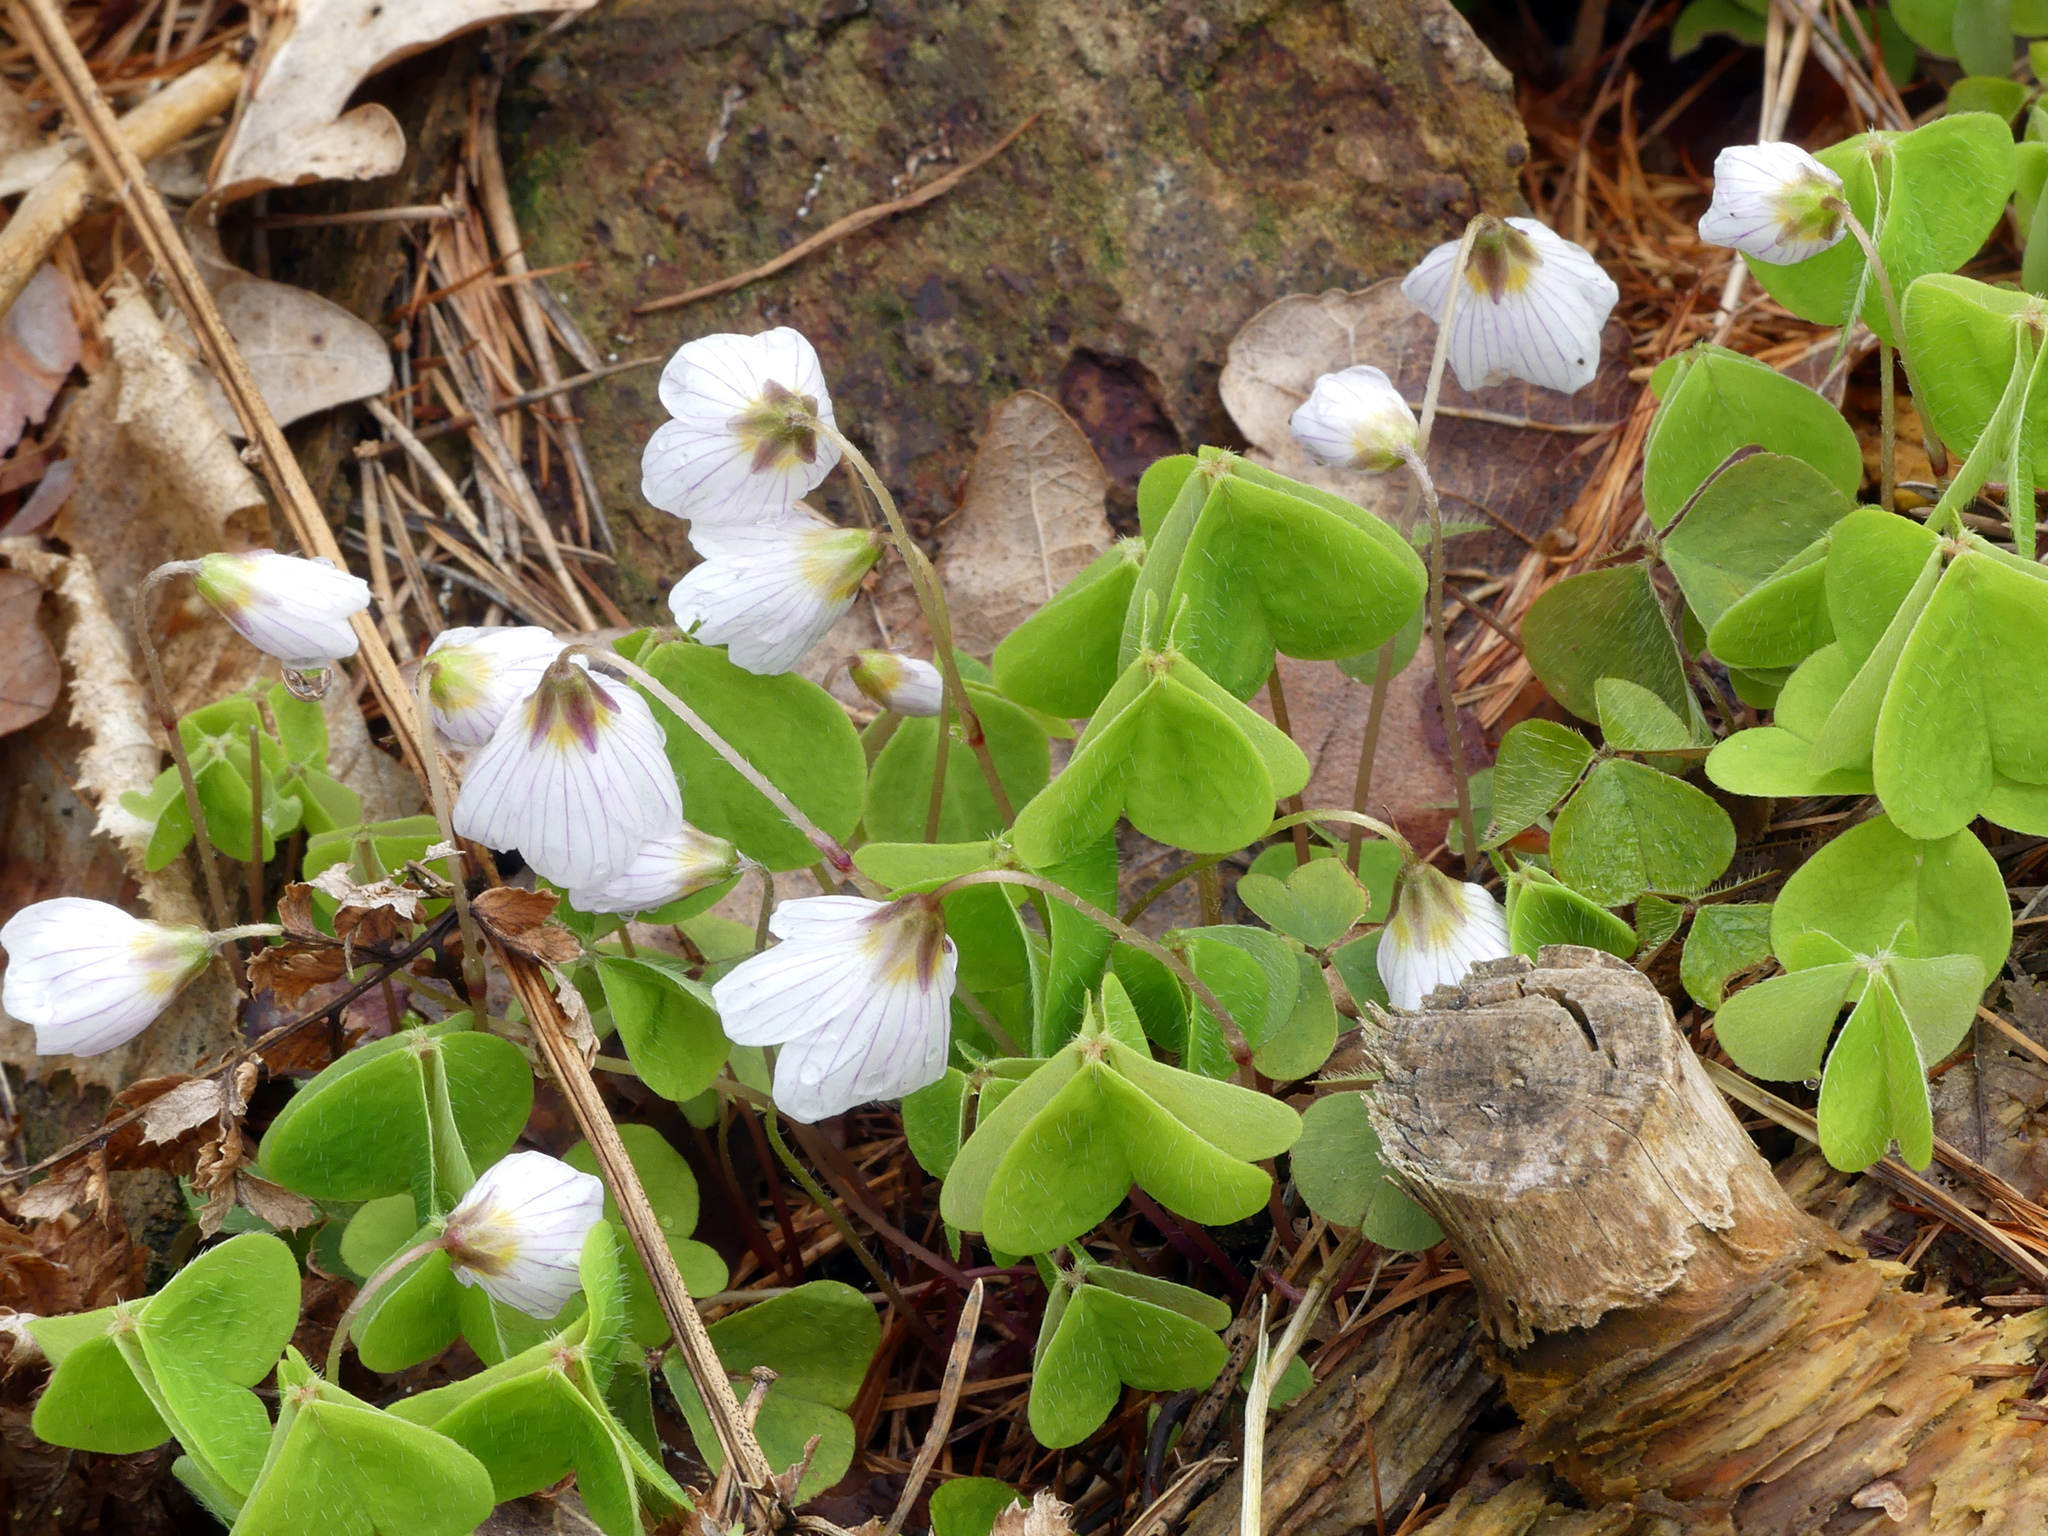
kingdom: Plantae
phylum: Tracheophyta
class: Magnoliopsida
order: Oxalidales
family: Oxalidaceae
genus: Oxalis
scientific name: Oxalis acetosella
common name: Wood-sorrel
